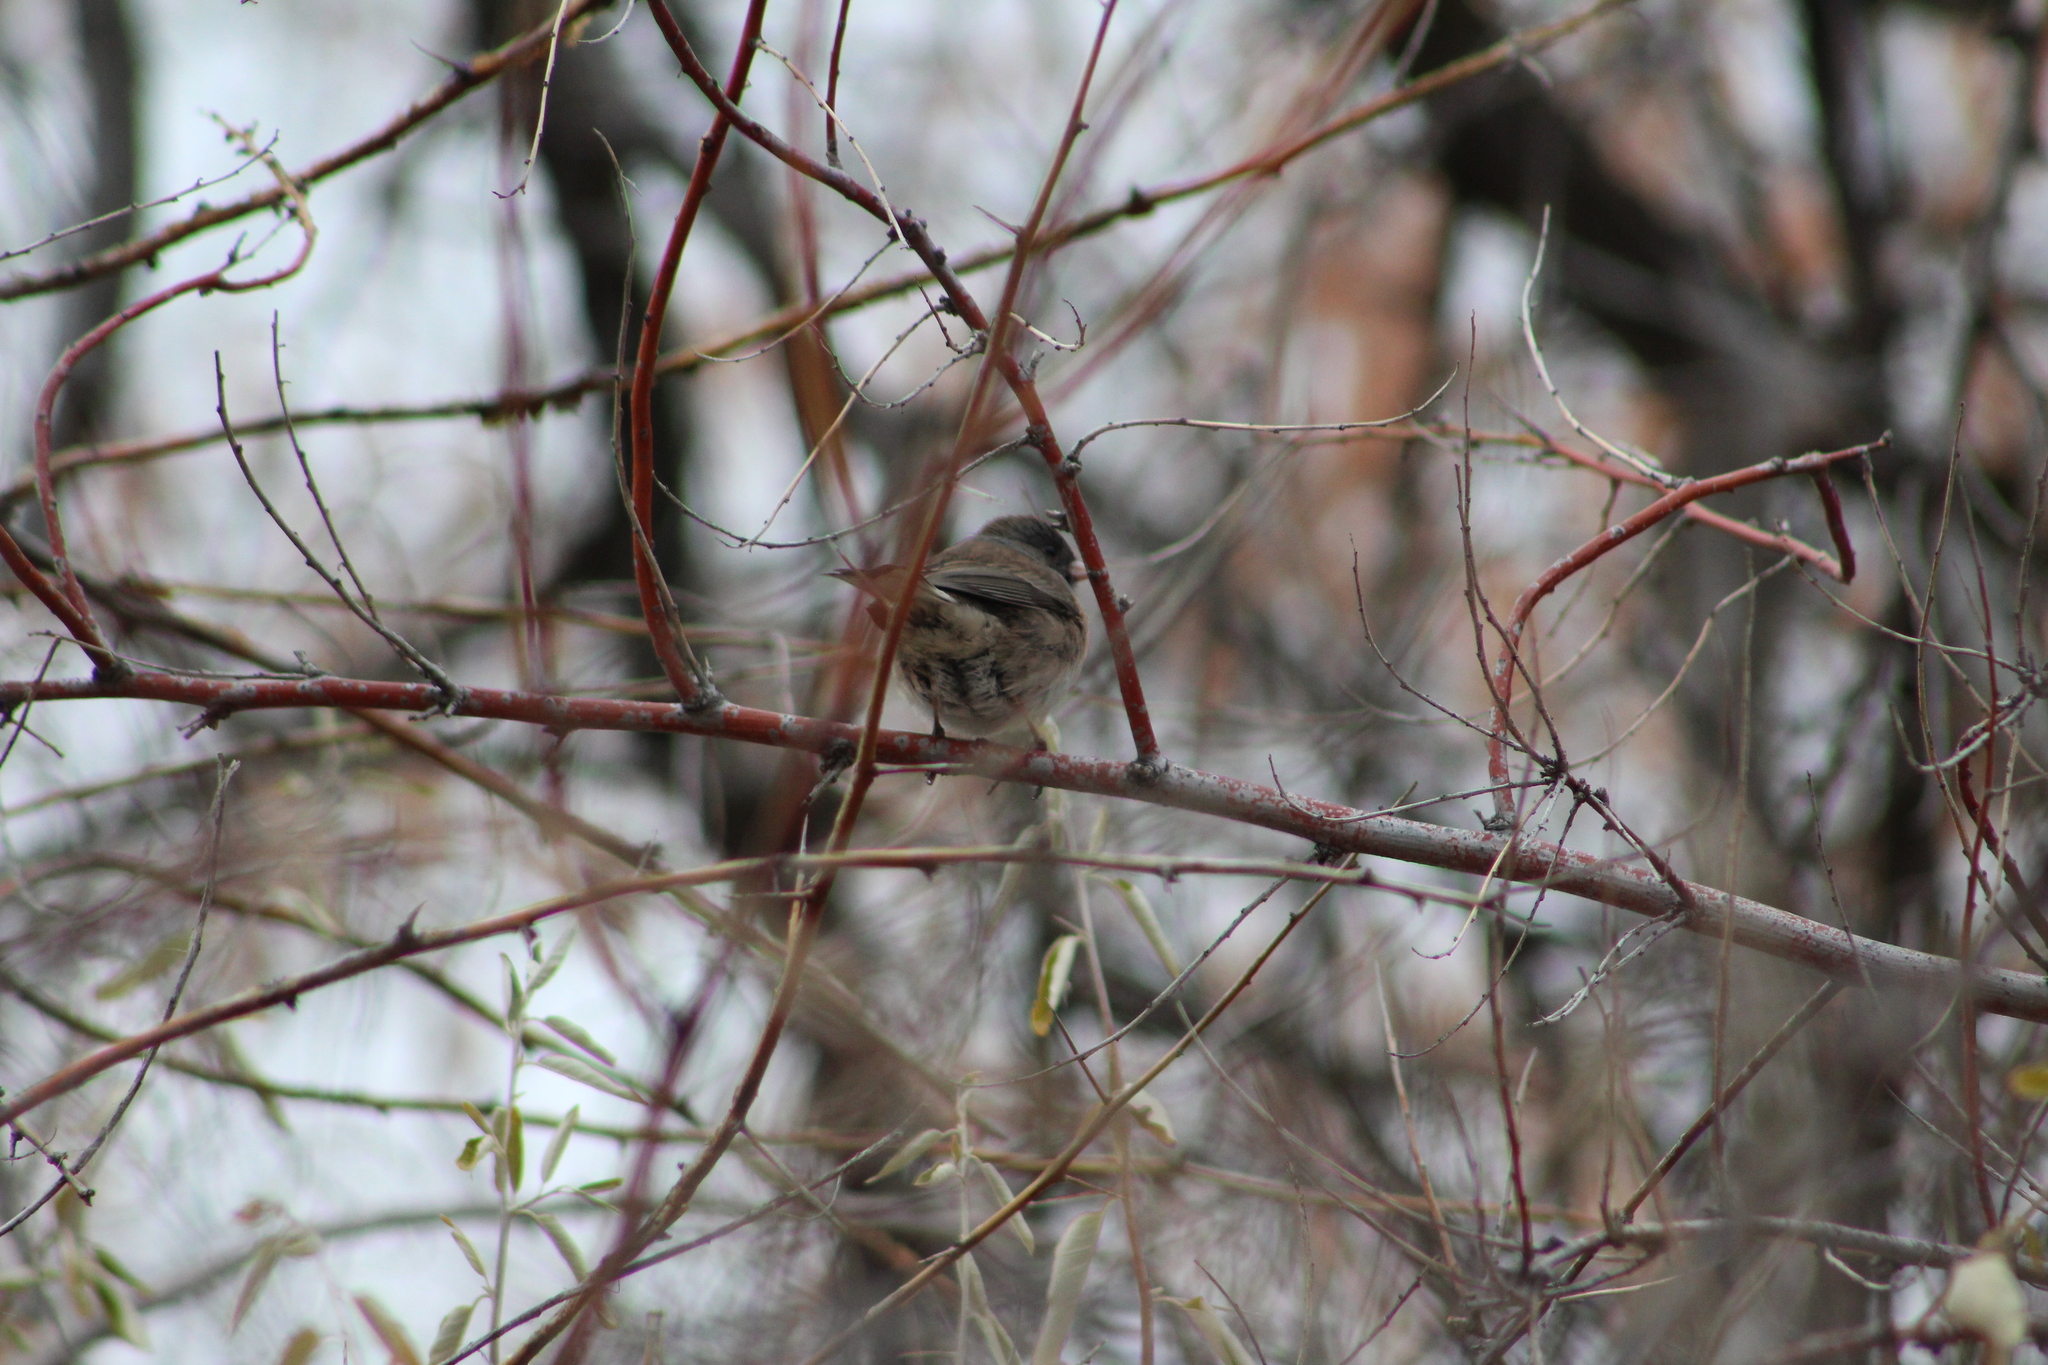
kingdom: Animalia
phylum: Chordata
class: Aves
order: Passeriformes
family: Passerellidae
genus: Junco
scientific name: Junco hyemalis
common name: Dark-eyed junco
